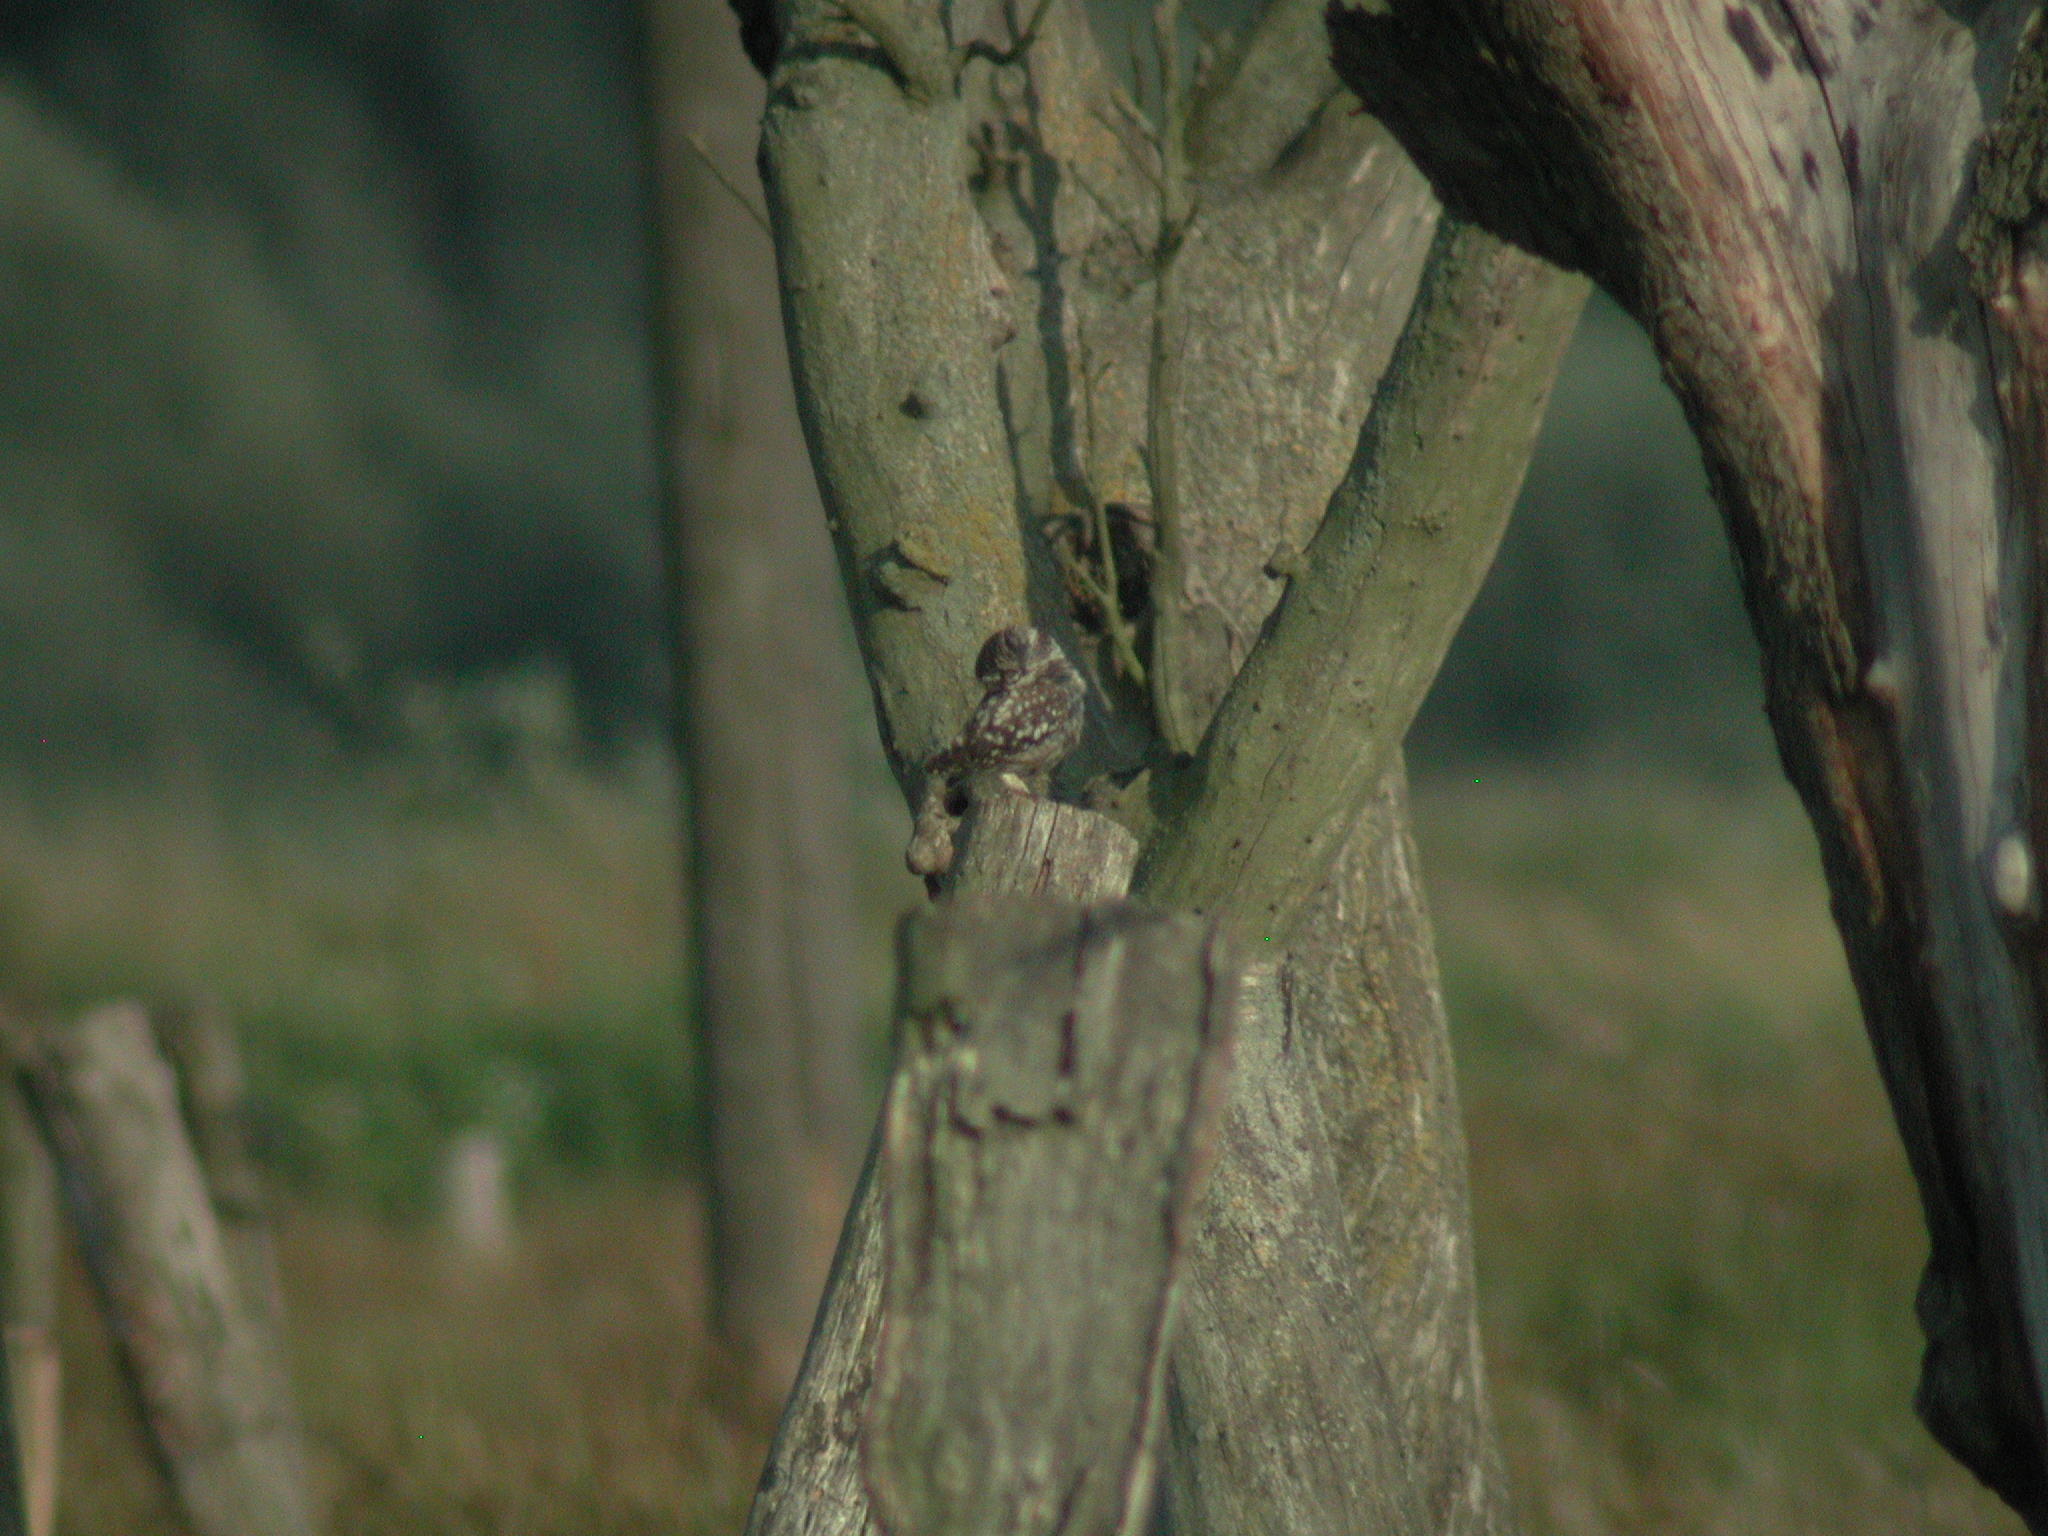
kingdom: Animalia
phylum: Chordata
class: Aves
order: Strigiformes
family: Strigidae
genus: Athene
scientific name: Athene noctua
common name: Little owl
